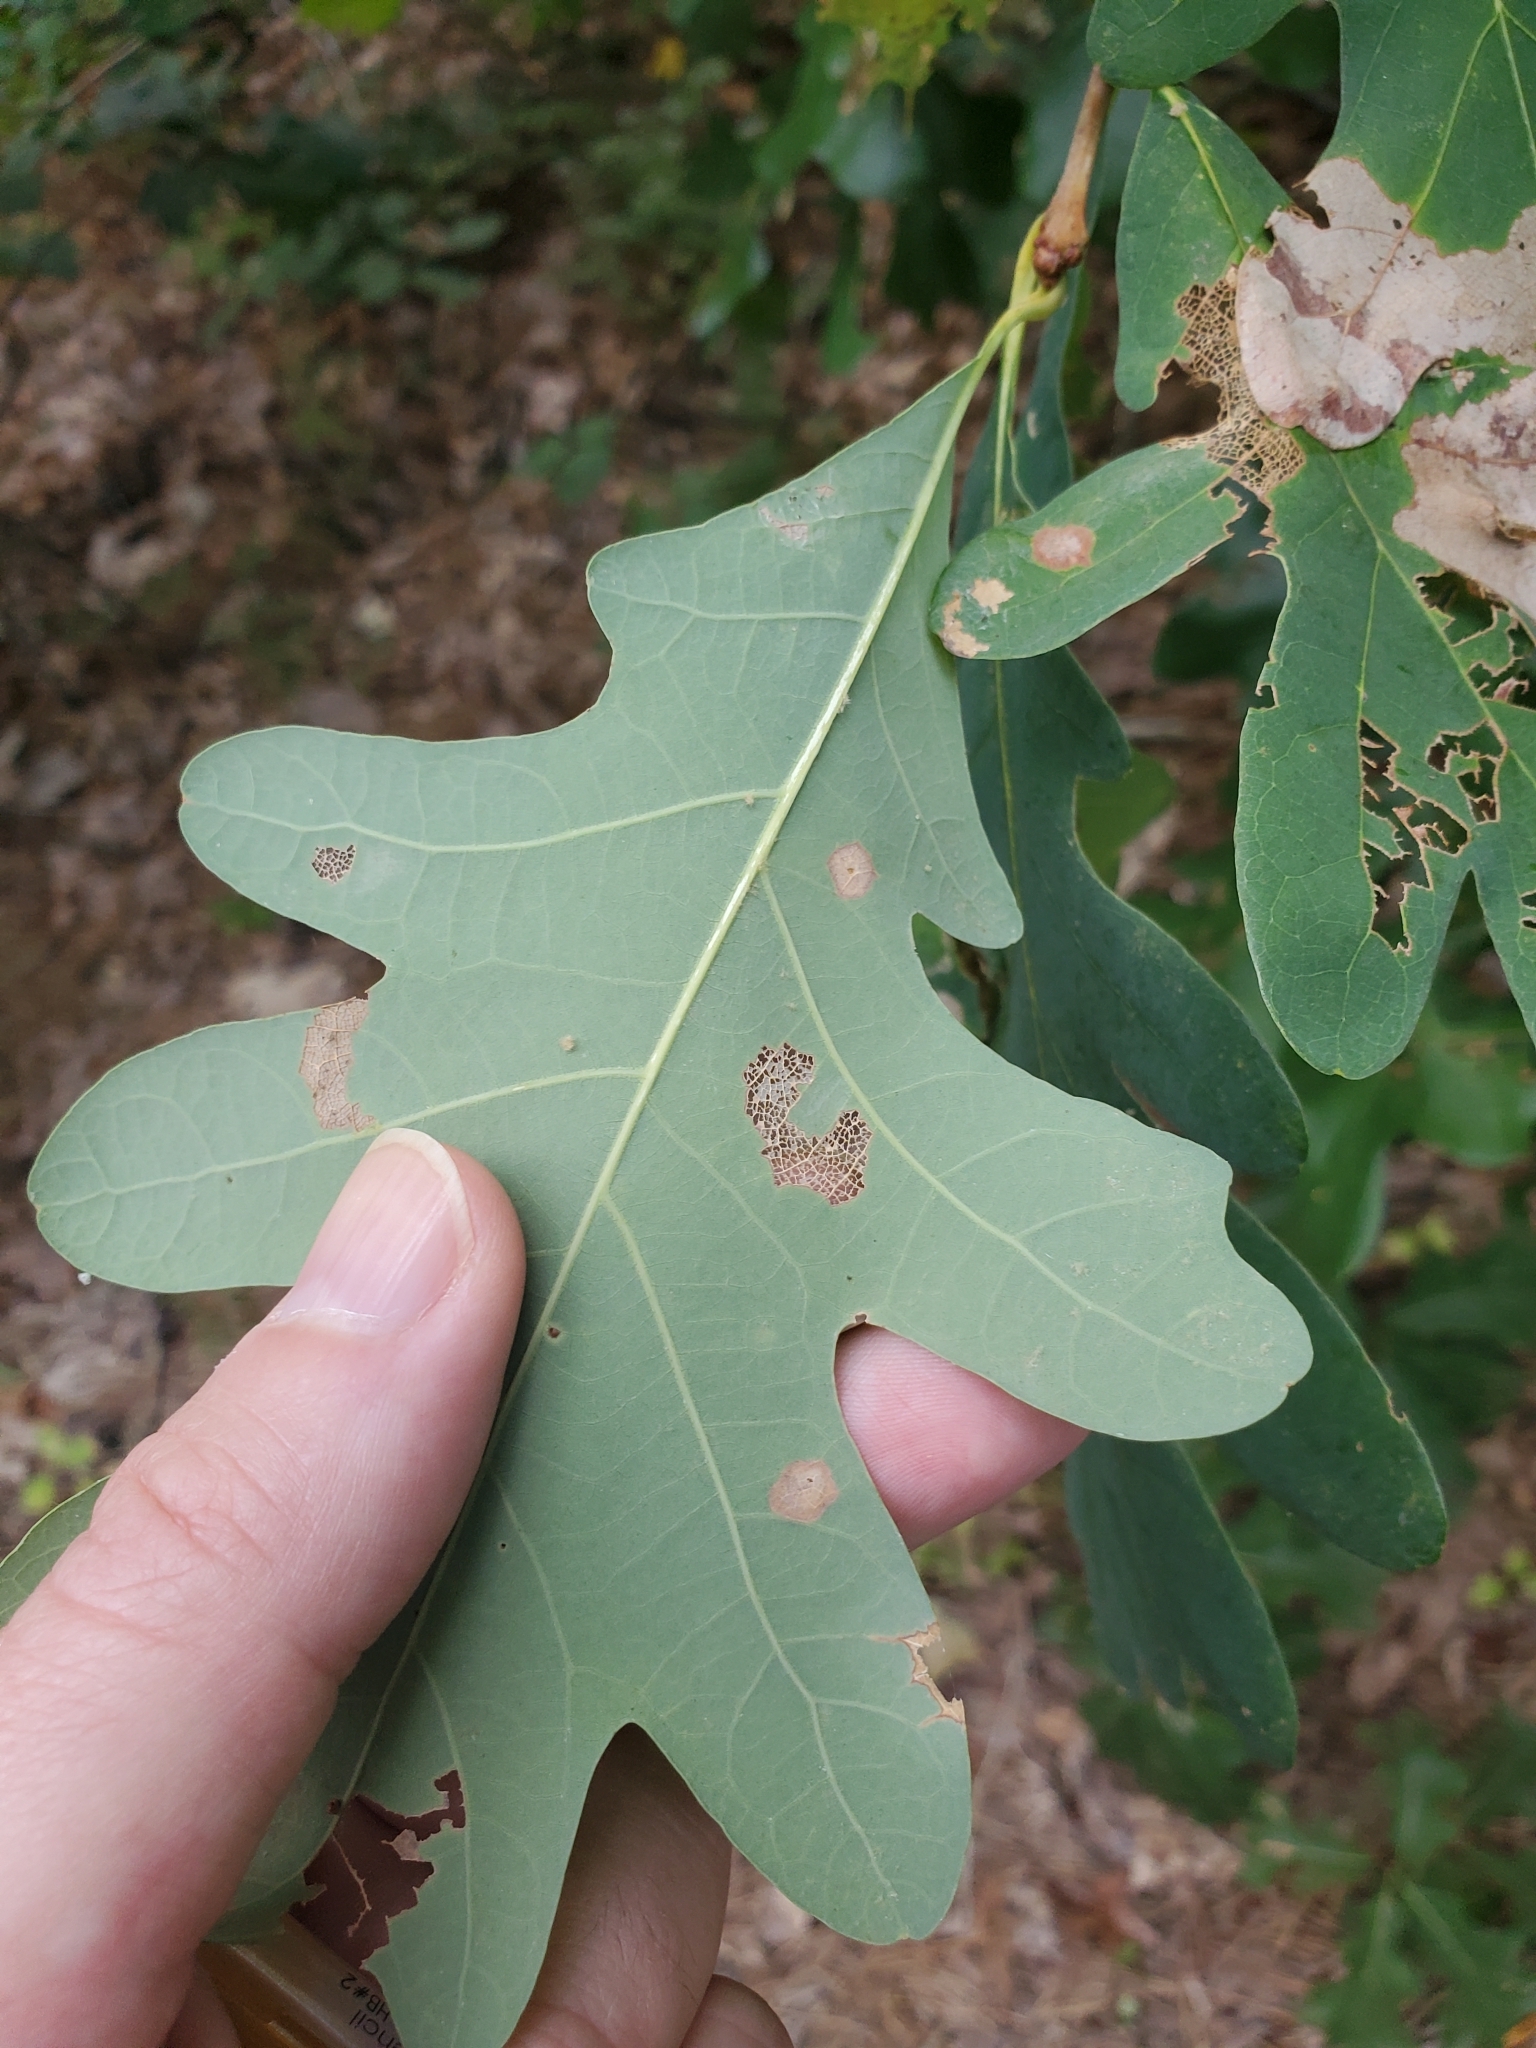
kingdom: Plantae
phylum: Tracheophyta
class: Magnoliopsida
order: Fagales
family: Fagaceae
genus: Quercus
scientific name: Quercus alba
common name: White oak
